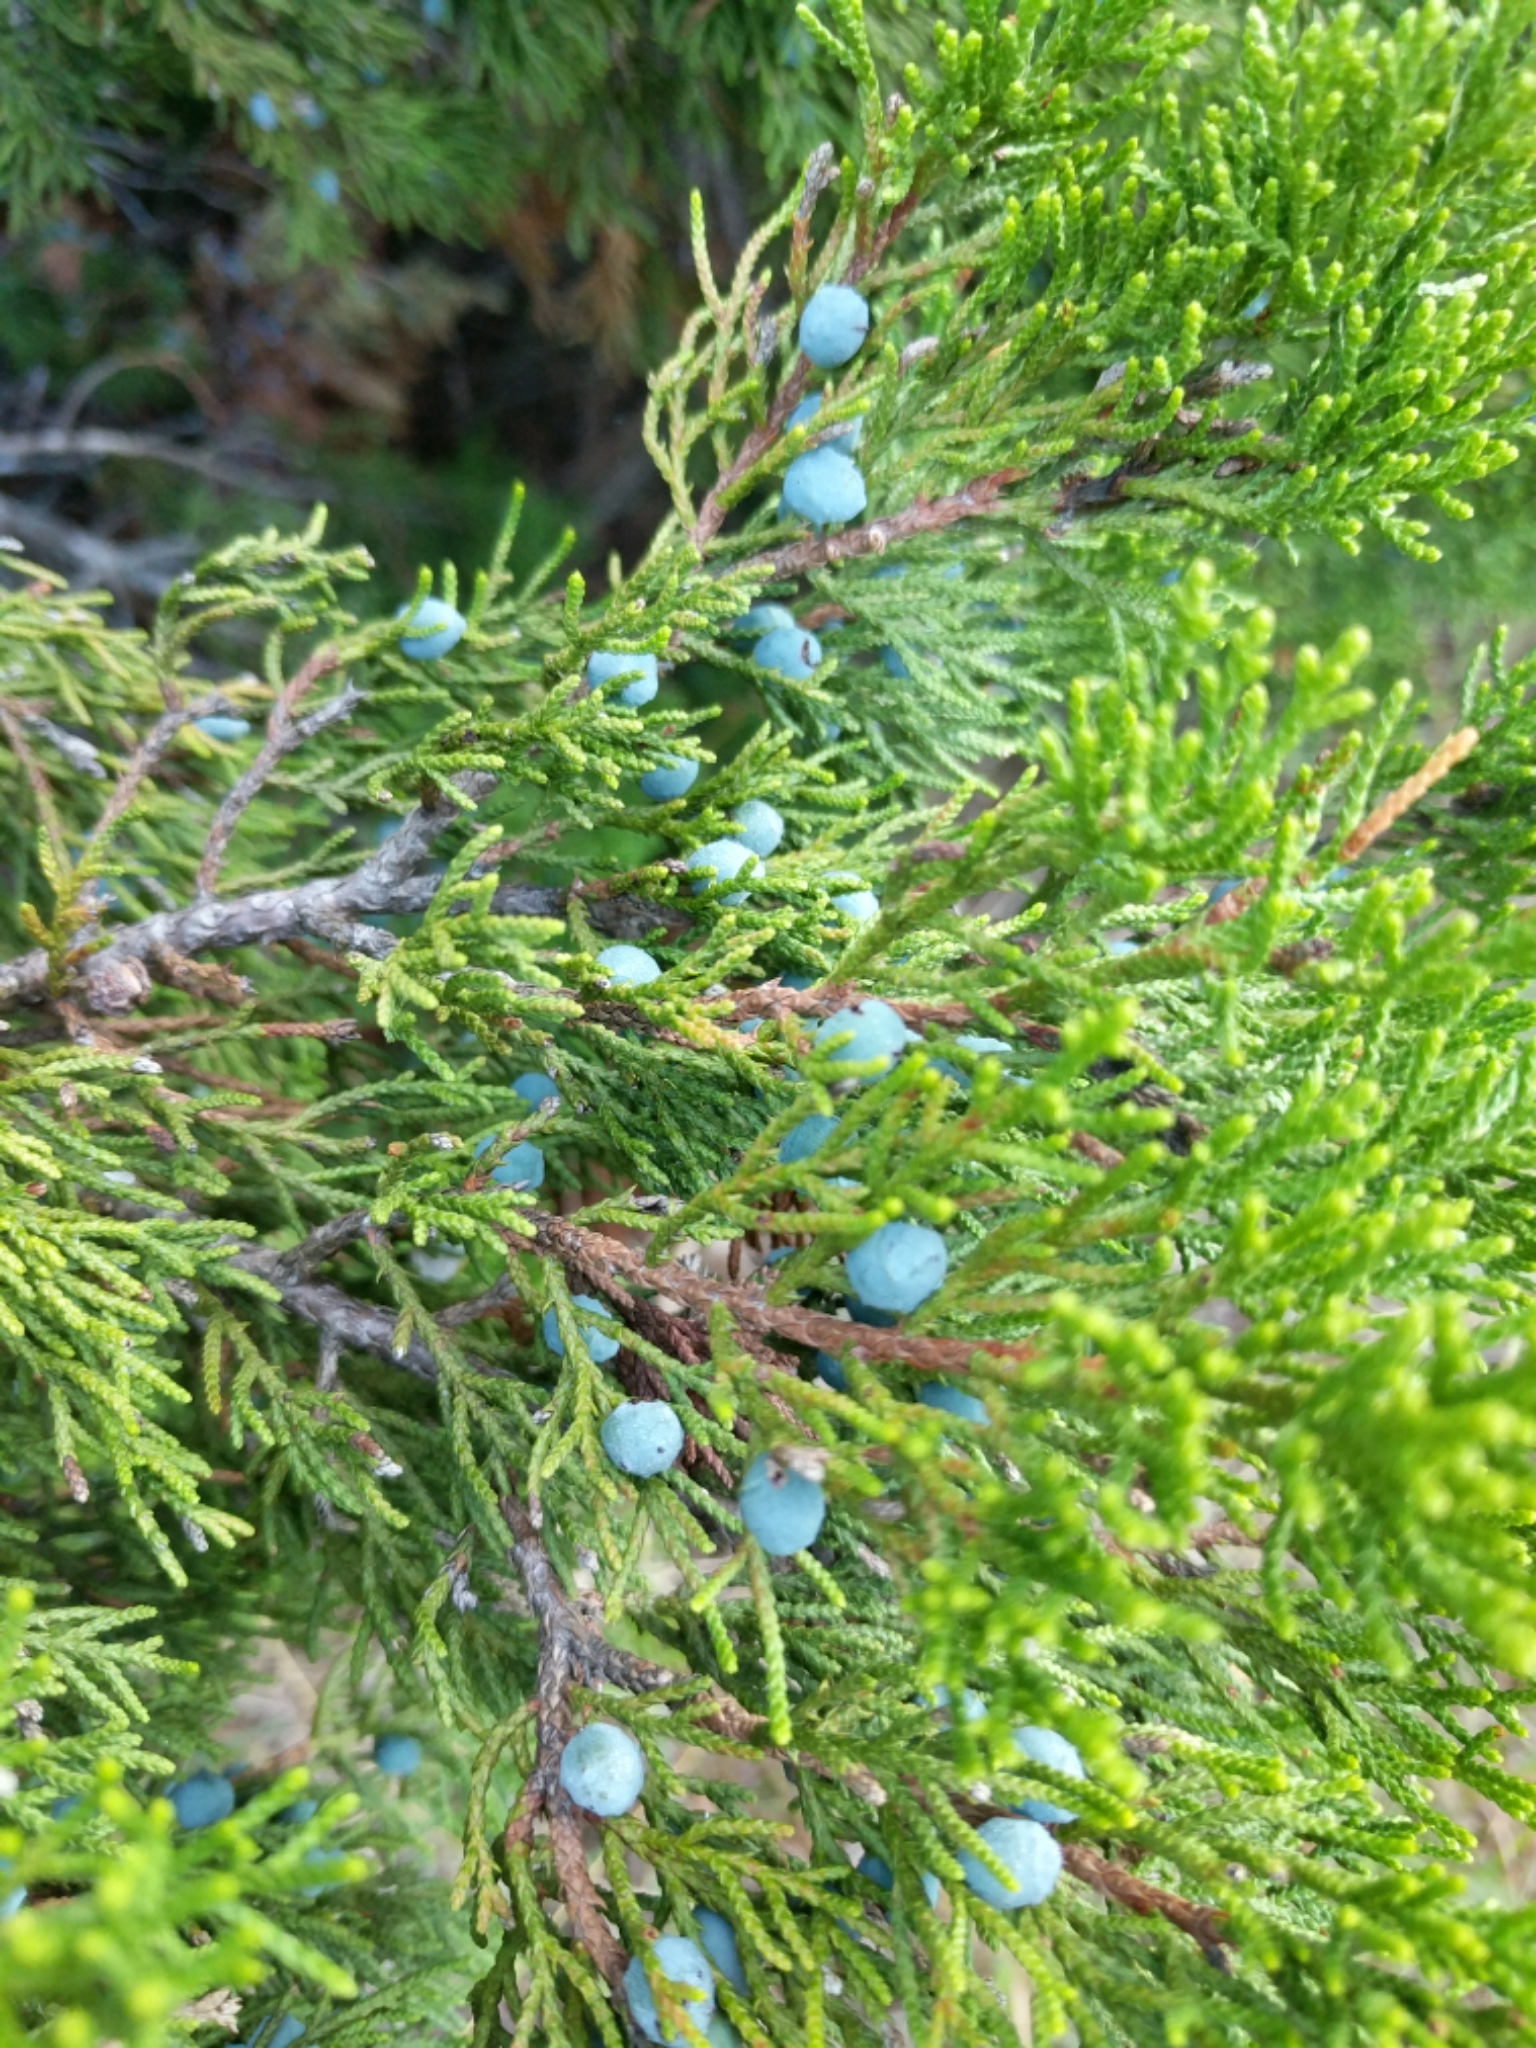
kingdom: Plantae
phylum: Tracheophyta
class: Pinopsida
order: Pinales
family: Cupressaceae
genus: Juniperus
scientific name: Juniperus ashei
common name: Mexican juniper
